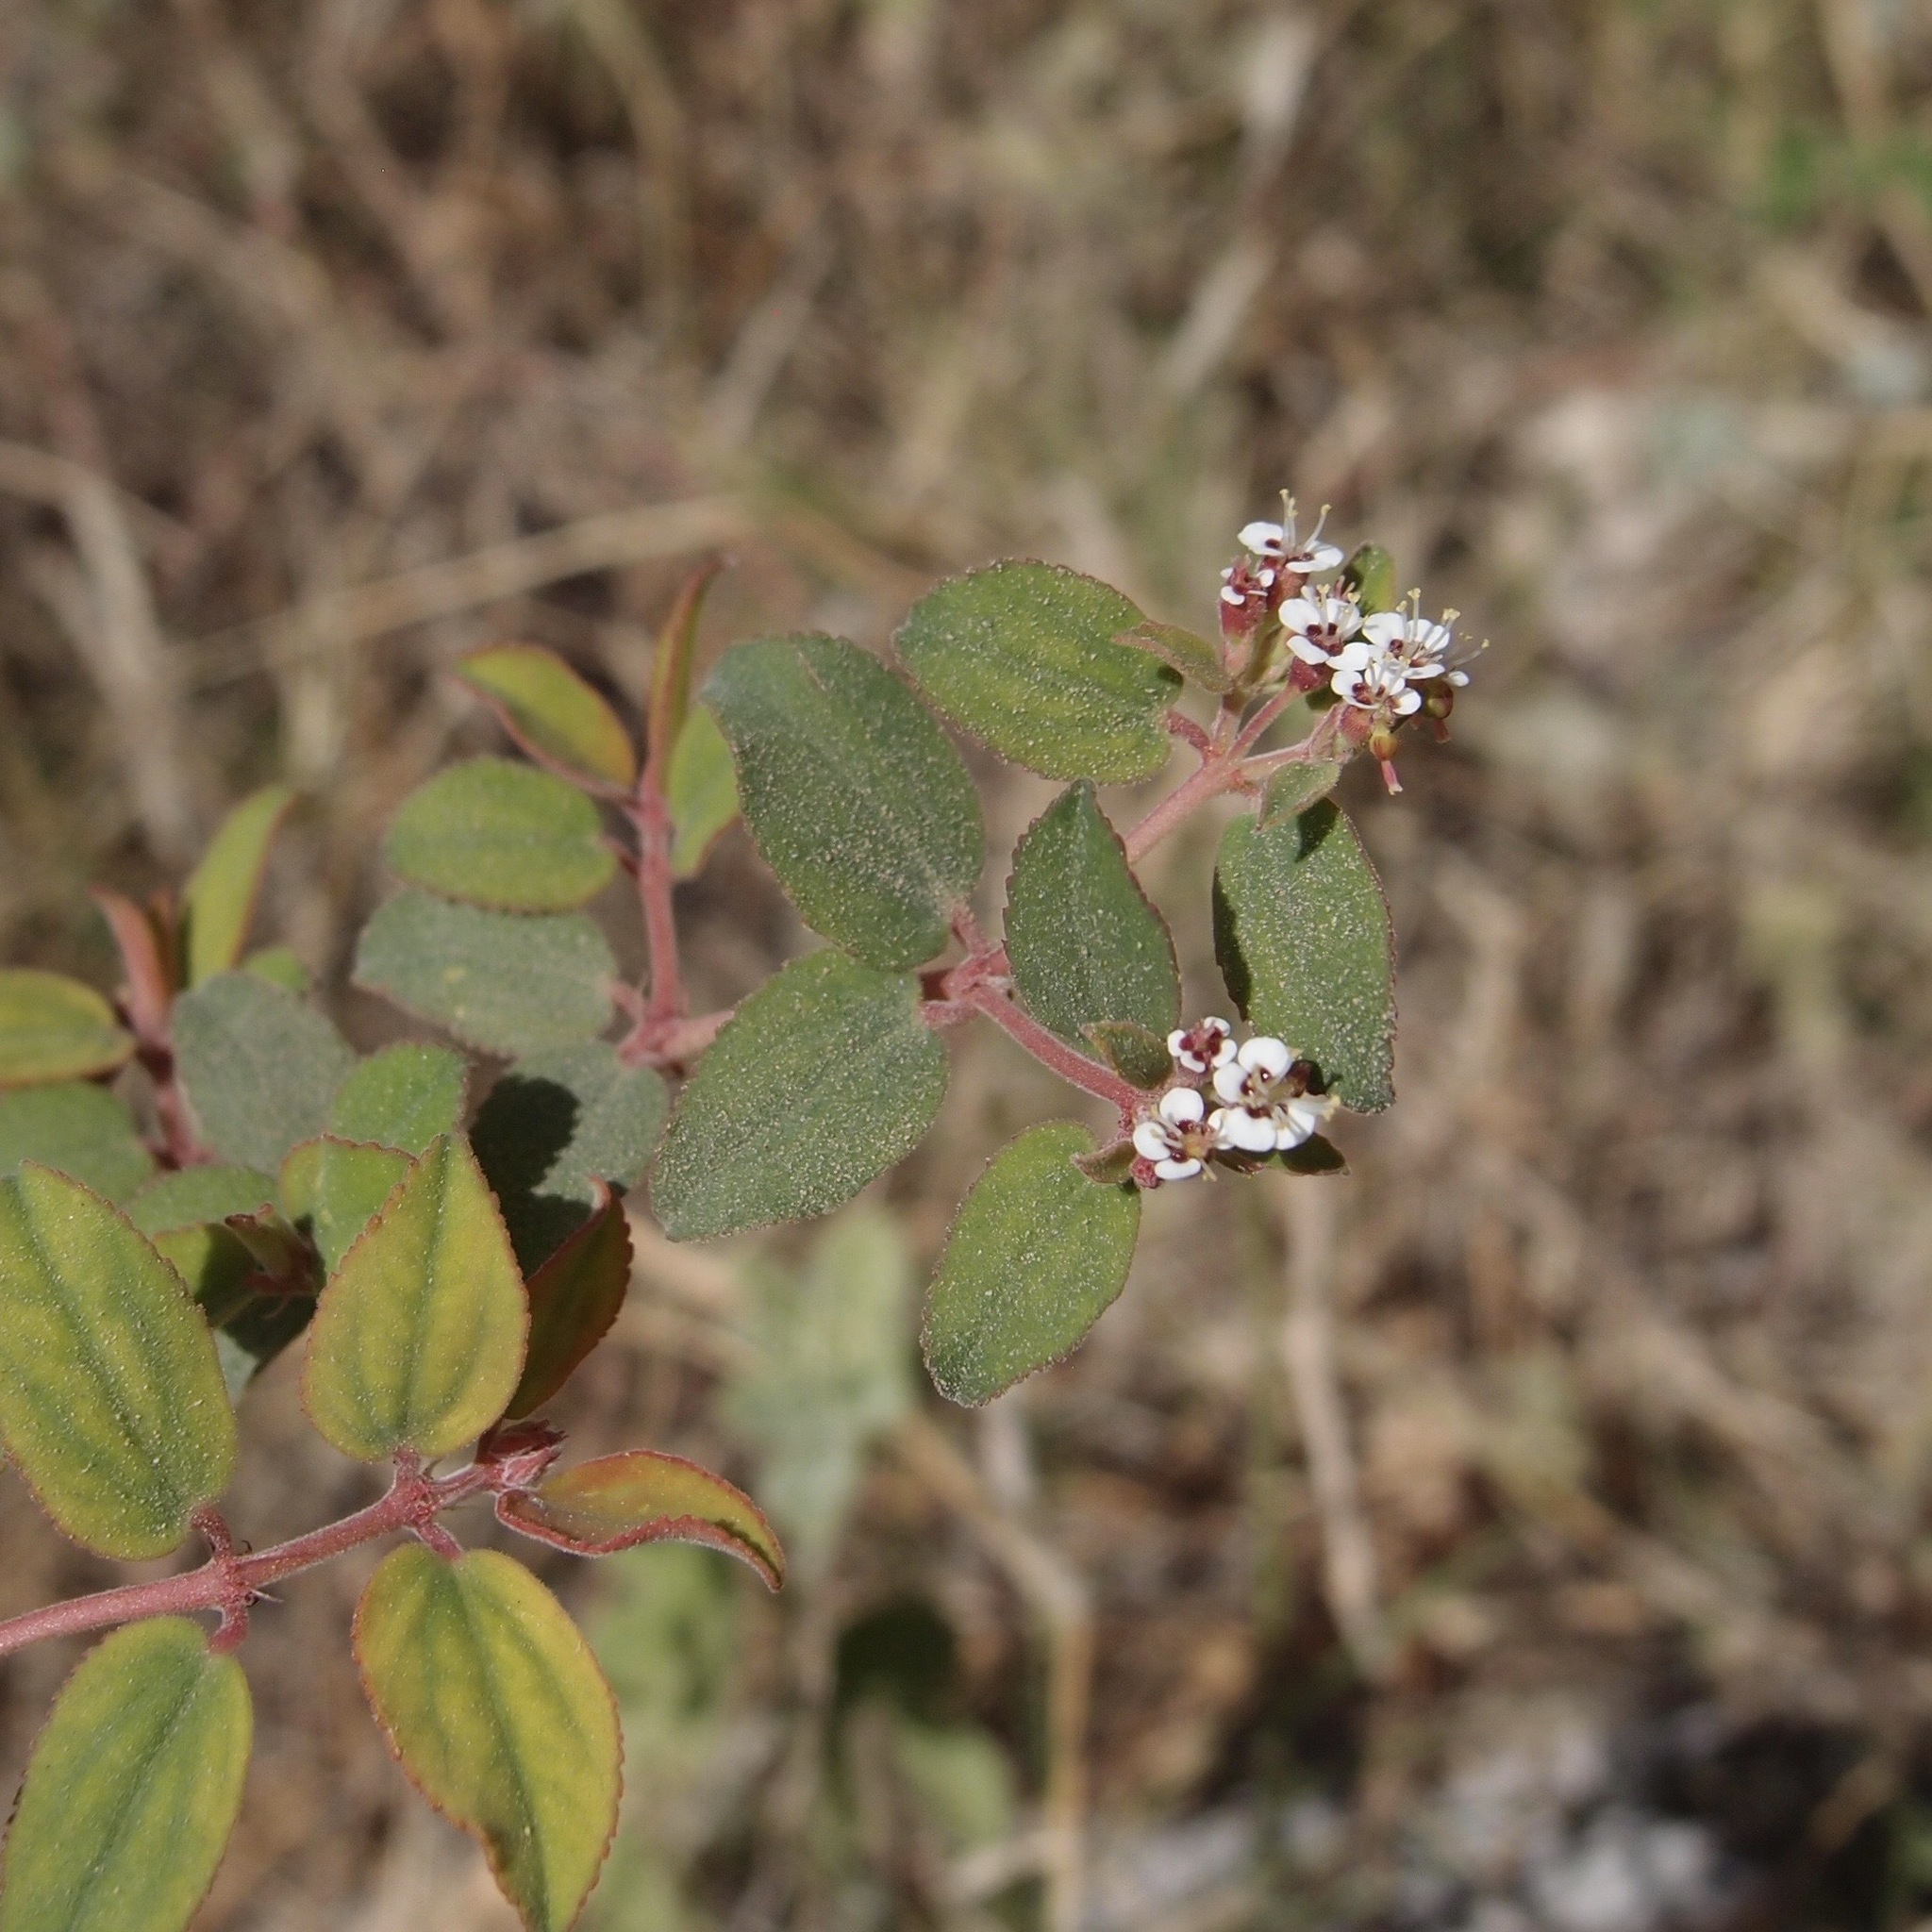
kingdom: Plantae
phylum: Tracheophyta
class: Magnoliopsida
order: Malpighiales
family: Euphorbiaceae
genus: Euphorbia
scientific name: Euphorbia tomentulosa
